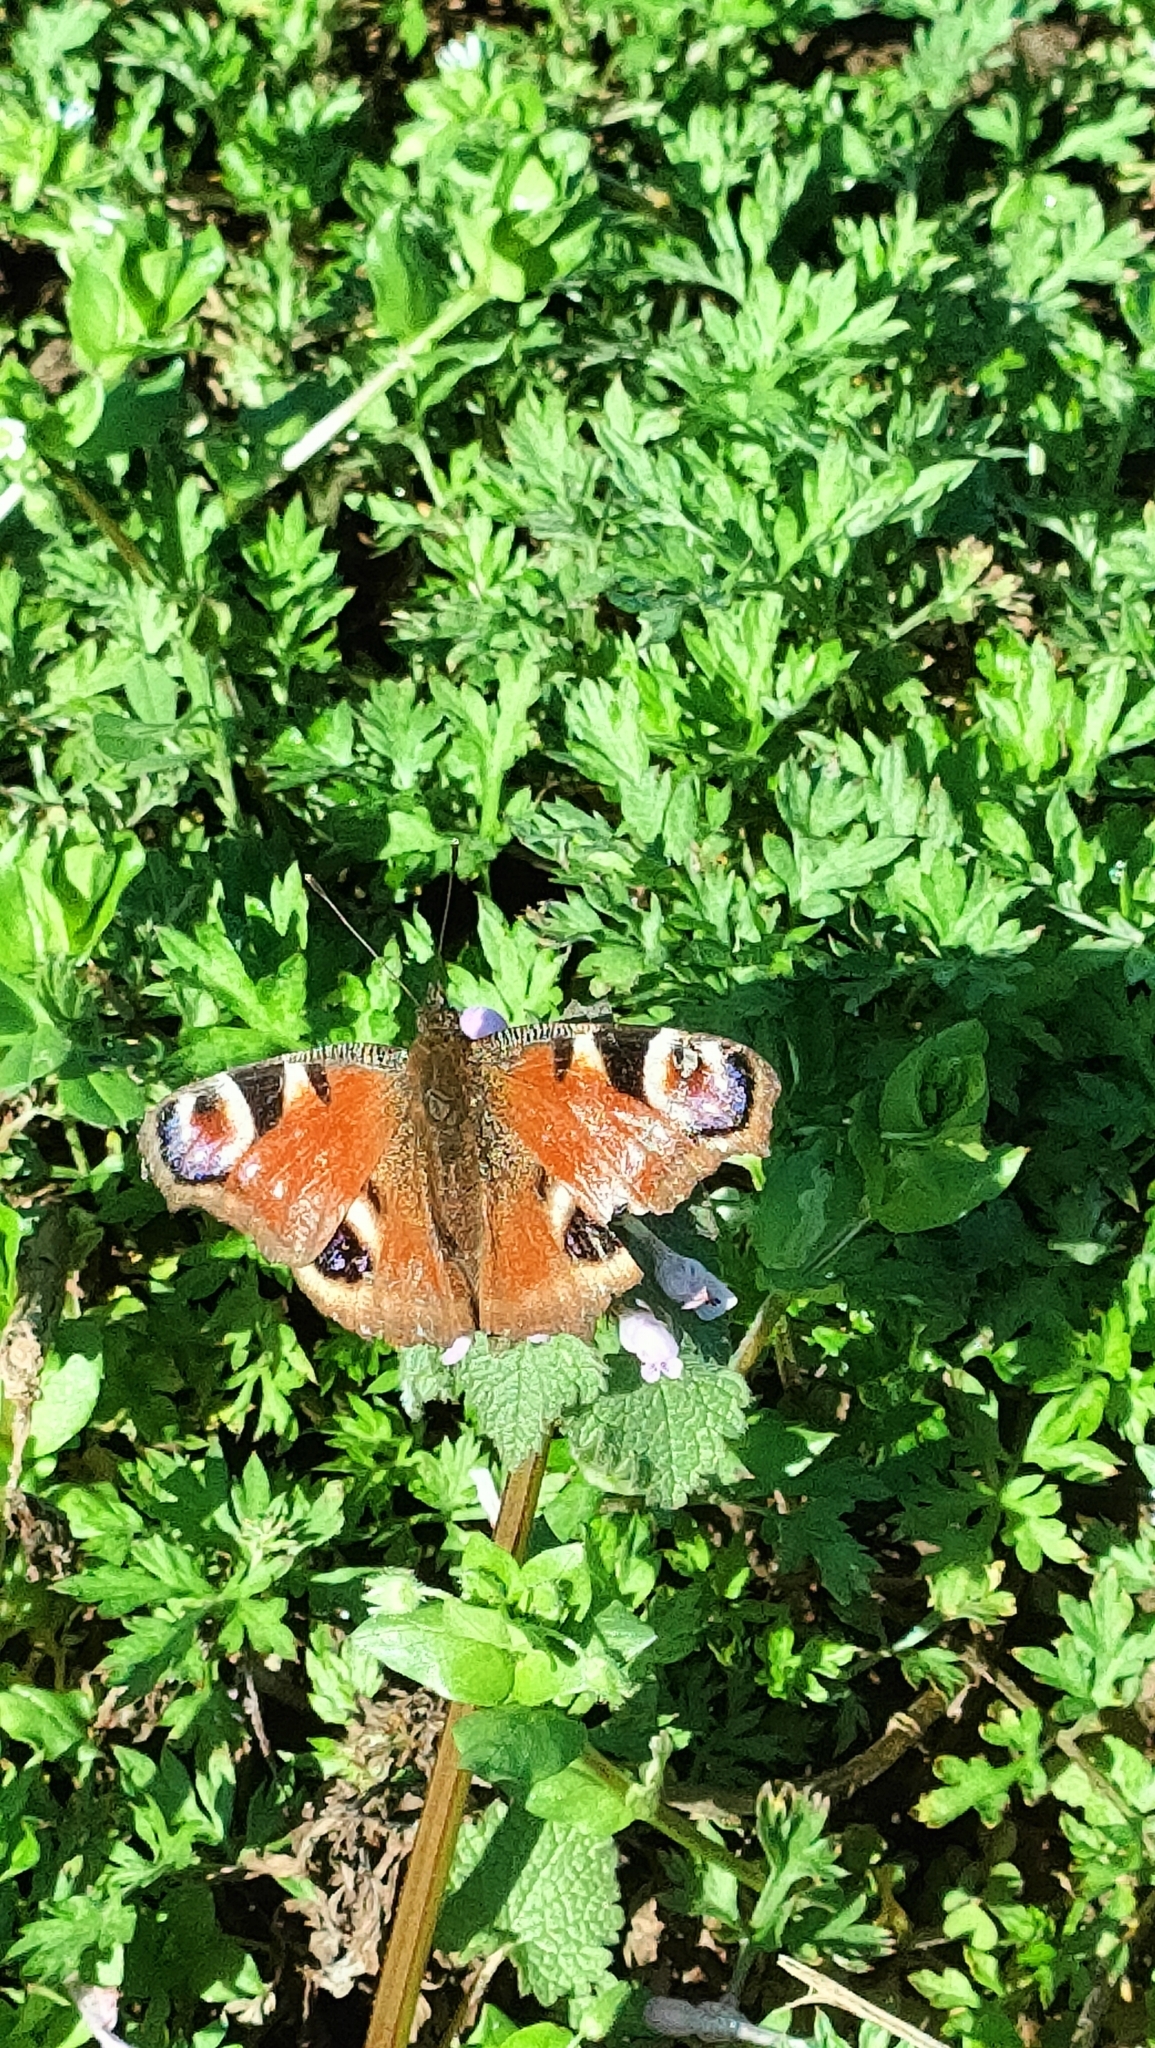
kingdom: Animalia
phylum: Arthropoda
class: Insecta
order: Lepidoptera
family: Nymphalidae
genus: Aglais
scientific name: Aglais io
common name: Peacock
